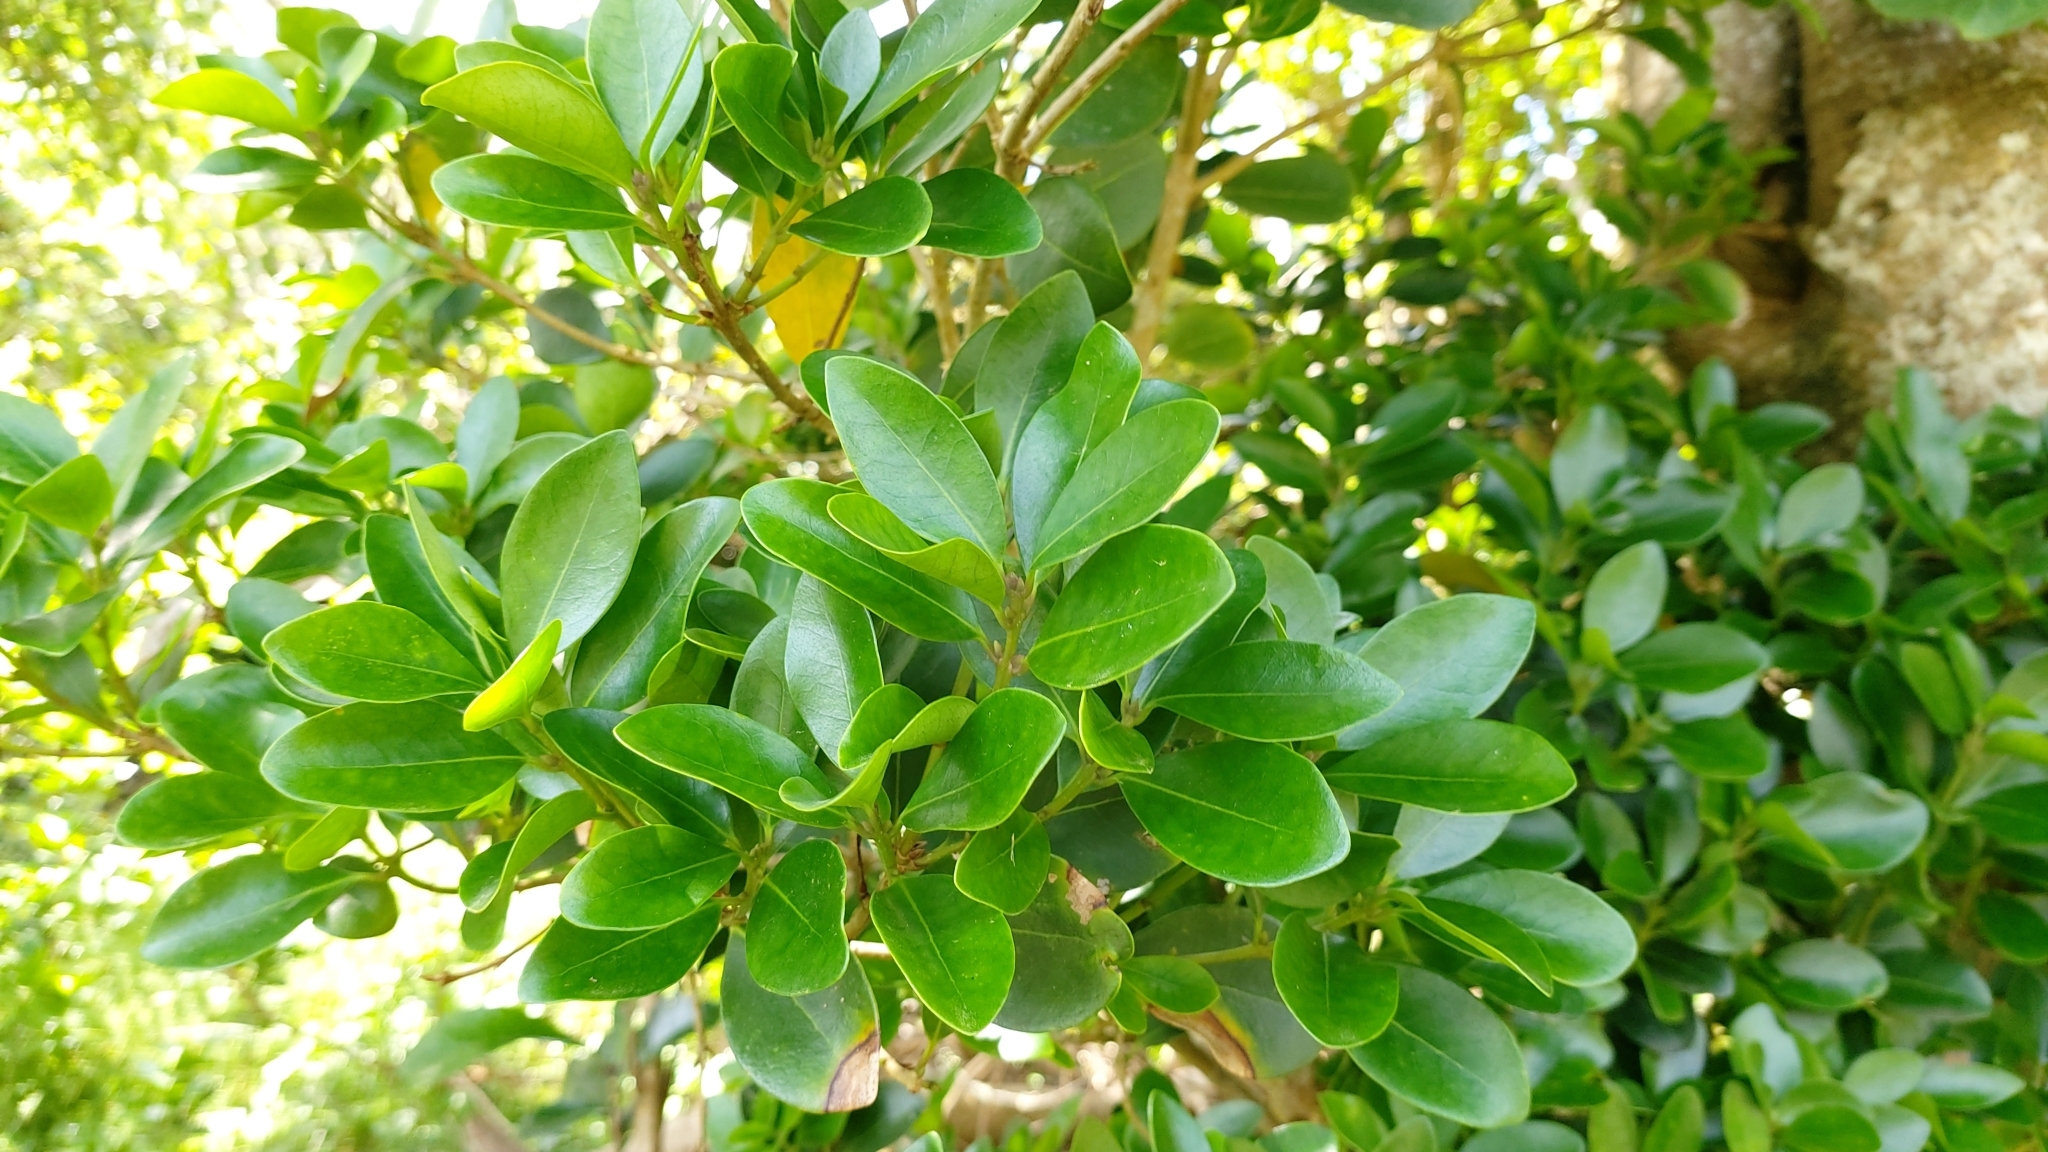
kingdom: Plantae
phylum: Tracheophyta
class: Magnoliopsida
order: Lamiales
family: Oleaceae
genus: Picconia
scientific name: Picconia azorica
